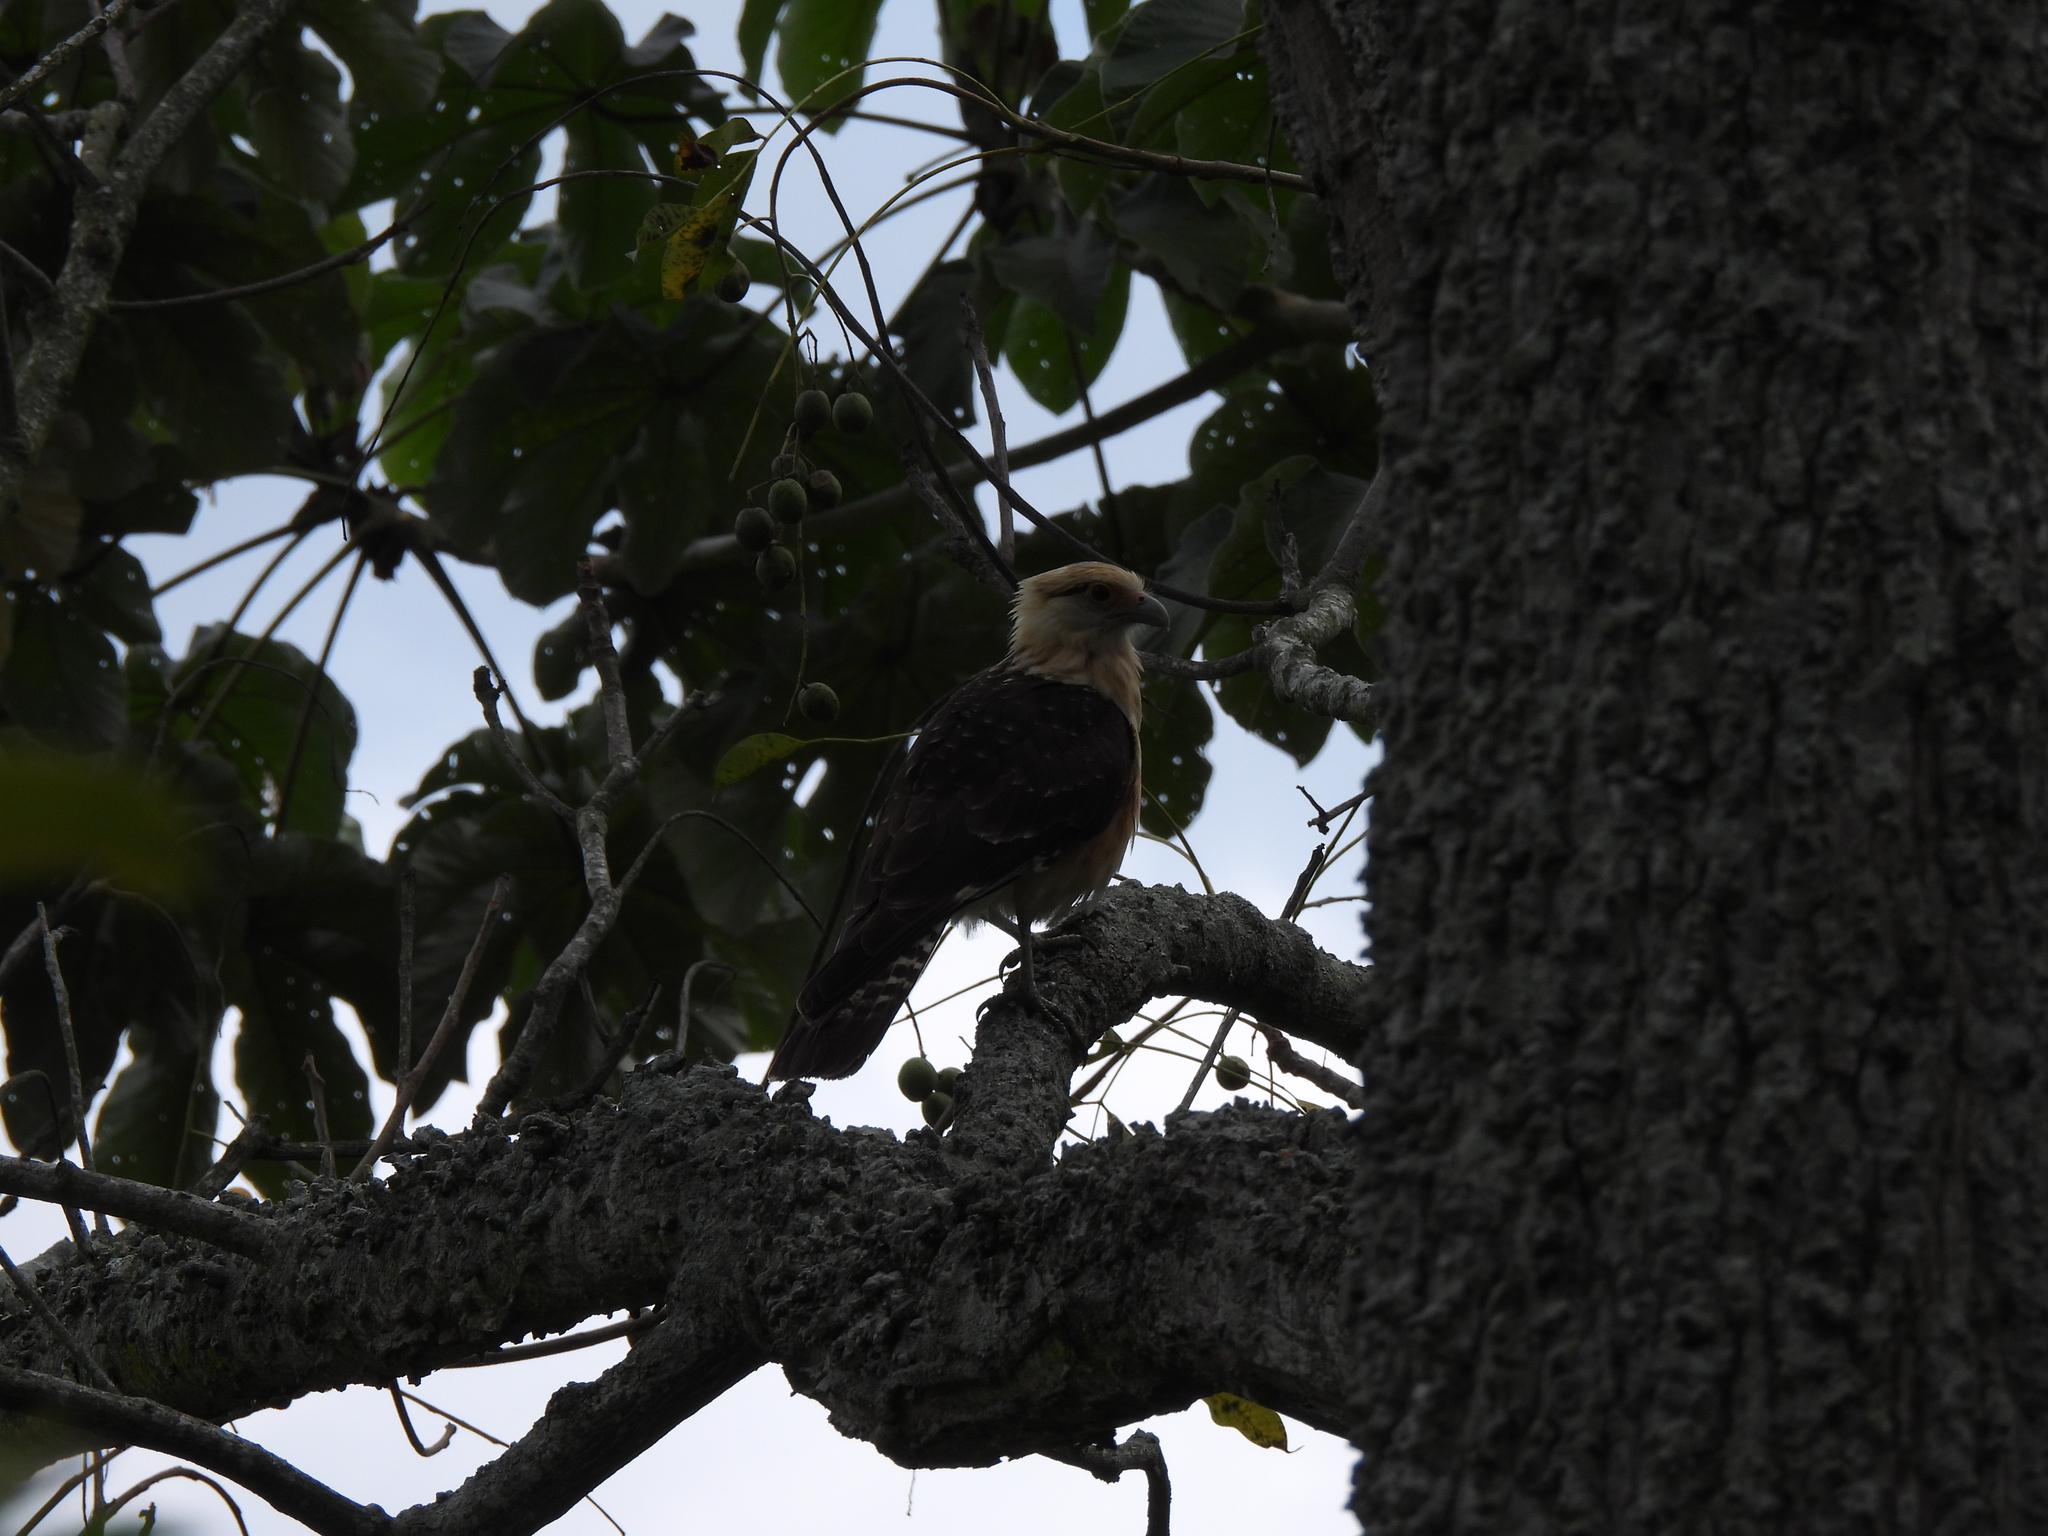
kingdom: Animalia
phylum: Chordata
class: Aves
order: Falconiformes
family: Falconidae
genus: Daptrius
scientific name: Daptrius
